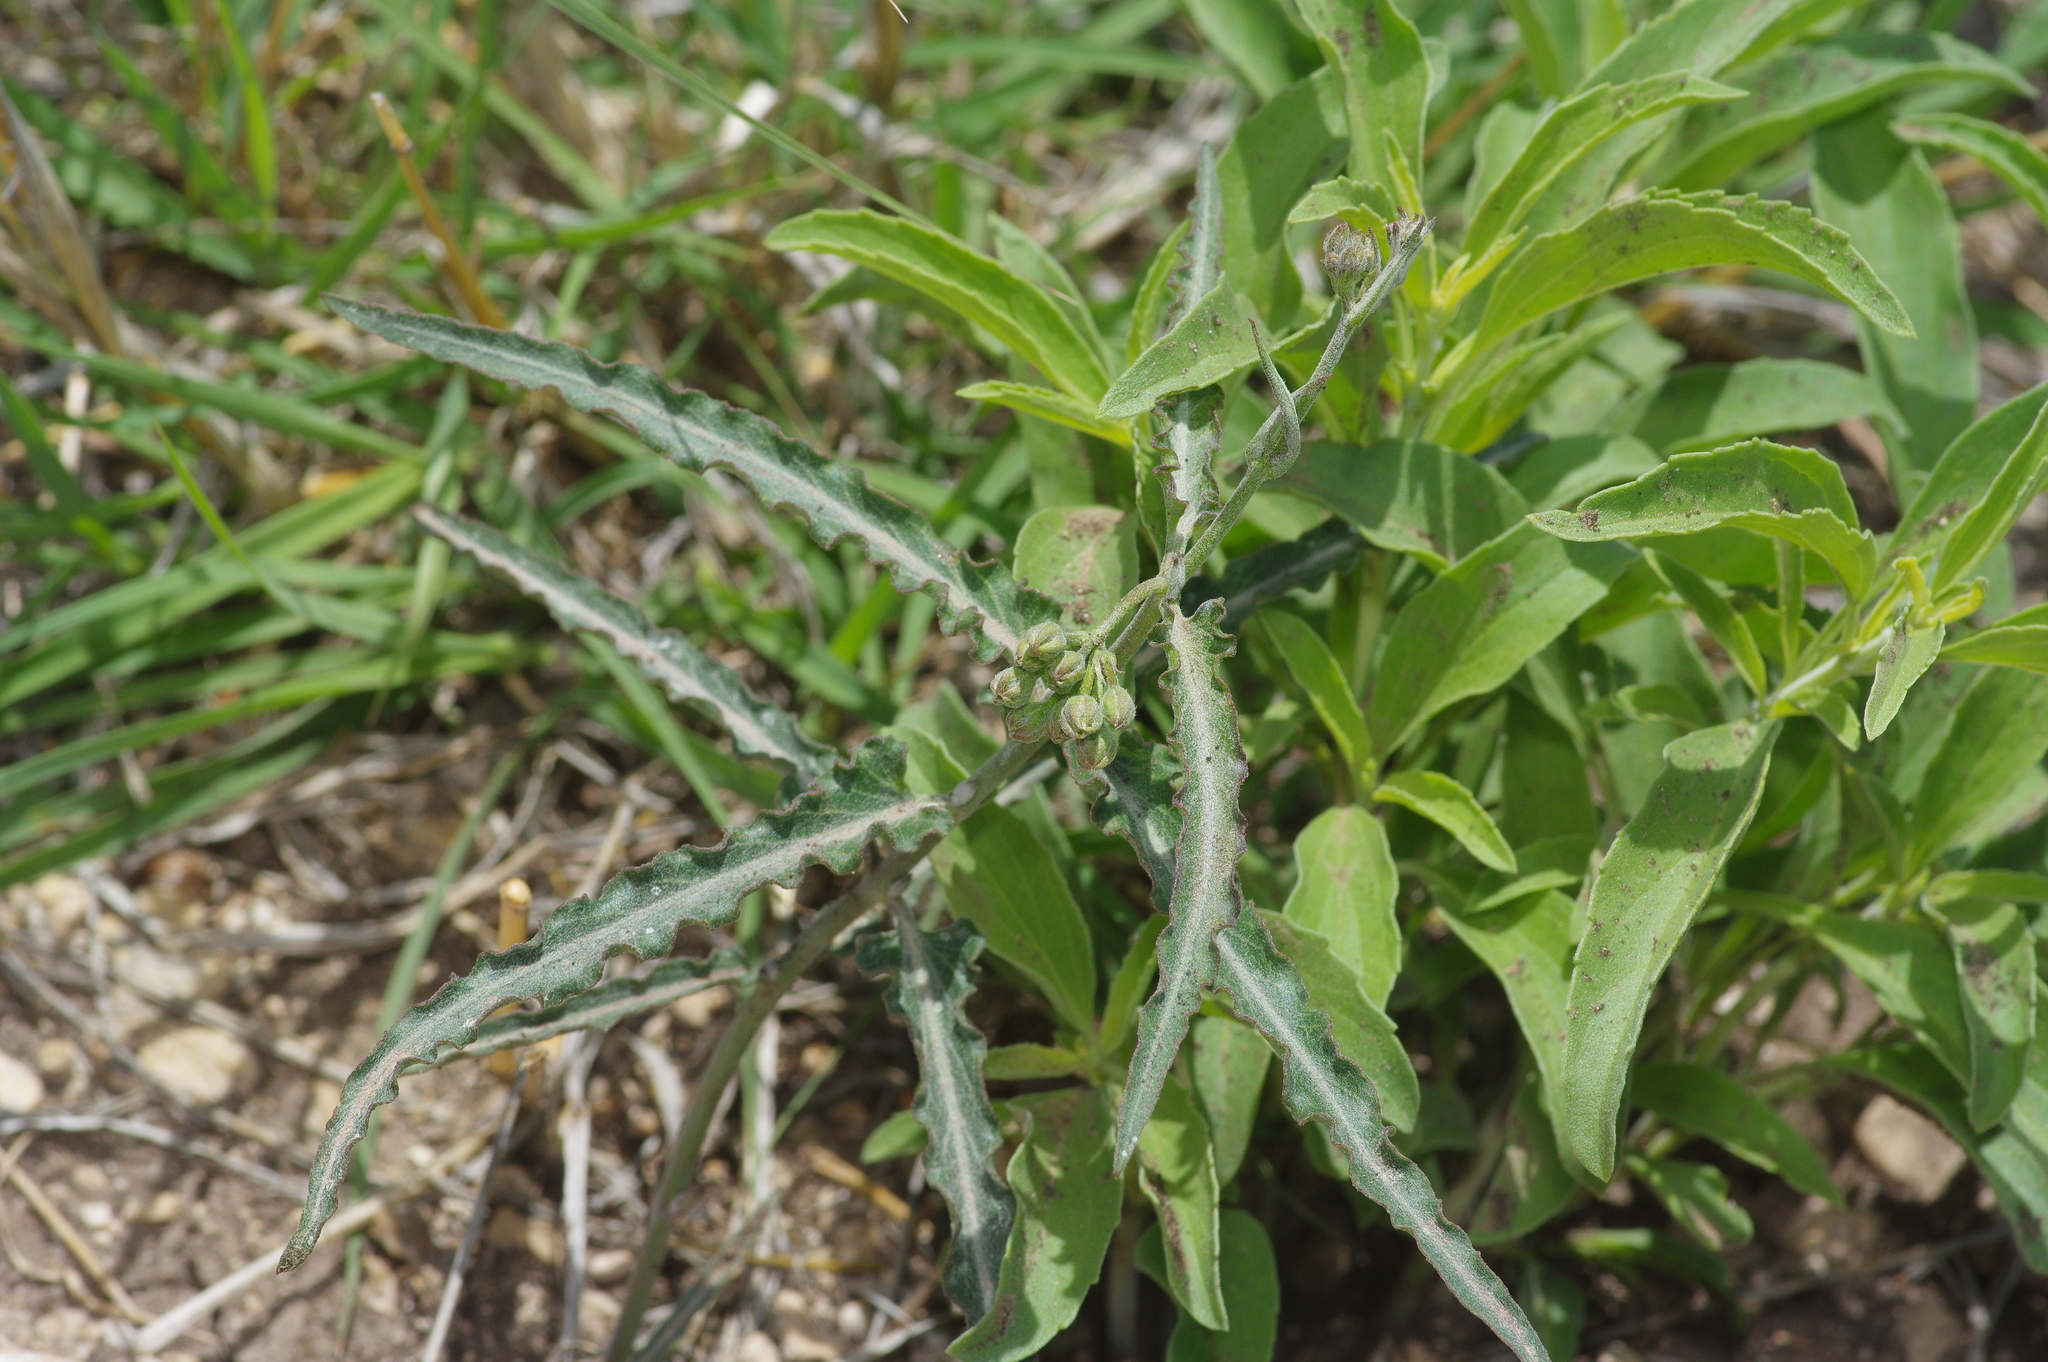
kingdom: Plantae
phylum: Tracheophyta
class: Magnoliopsida
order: Gentianales
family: Apocynaceae
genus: Funastrum
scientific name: Funastrum crispum
